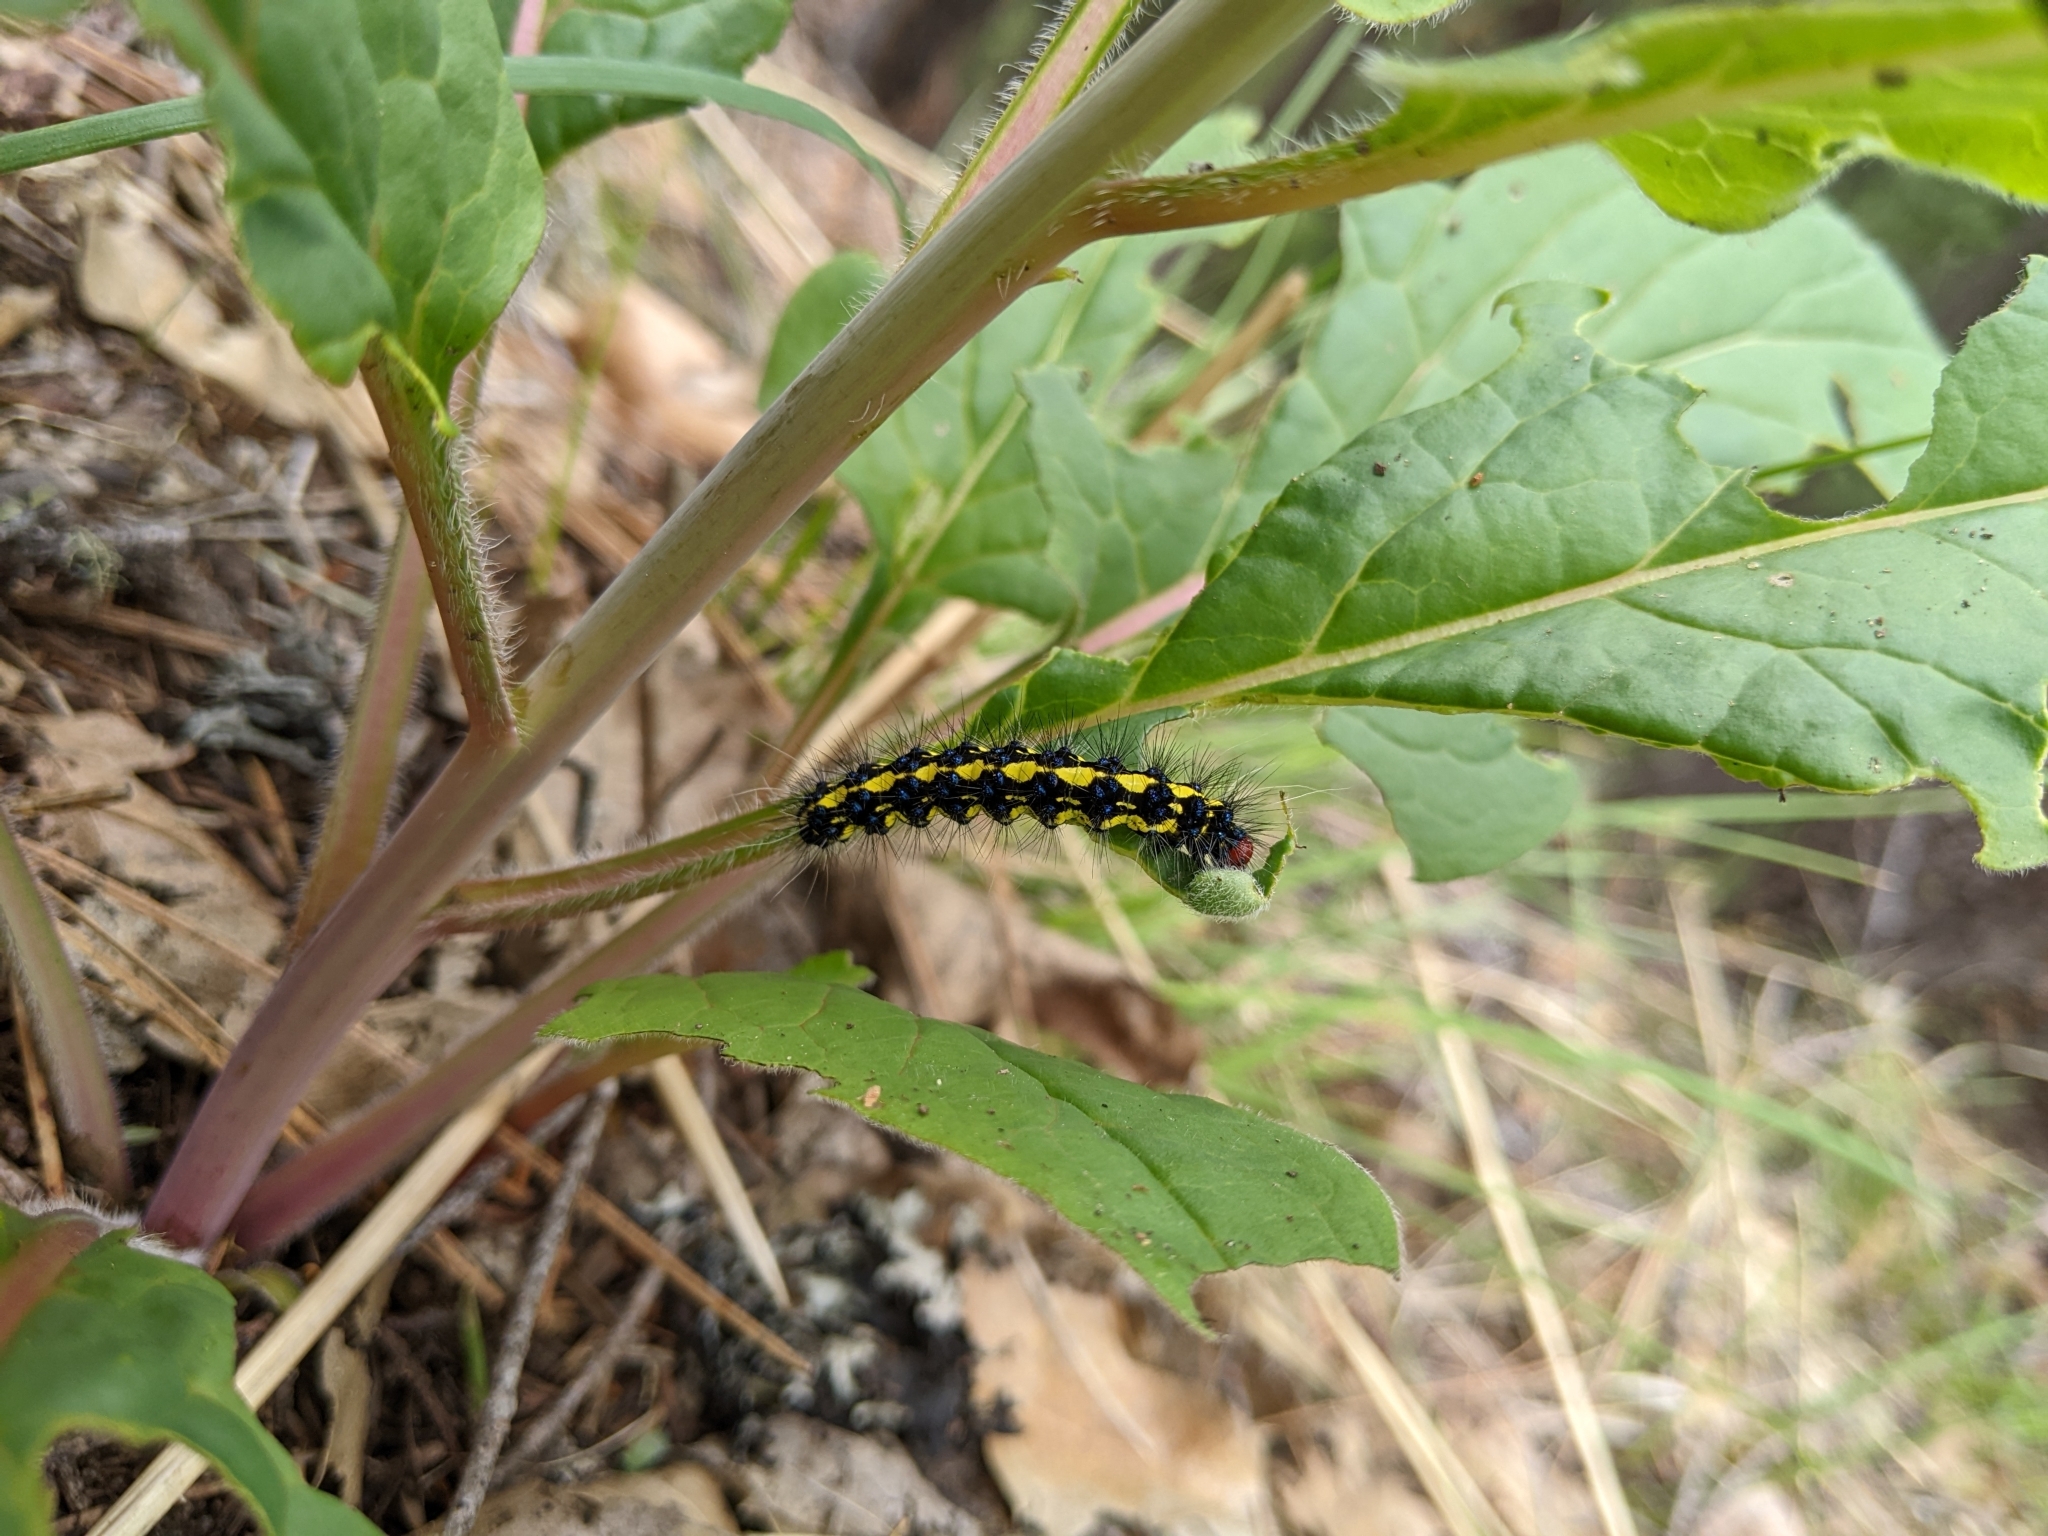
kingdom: Animalia
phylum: Arthropoda
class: Insecta
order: Lepidoptera
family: Erebidae
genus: Gnophaela
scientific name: Gnophaela latipennis
